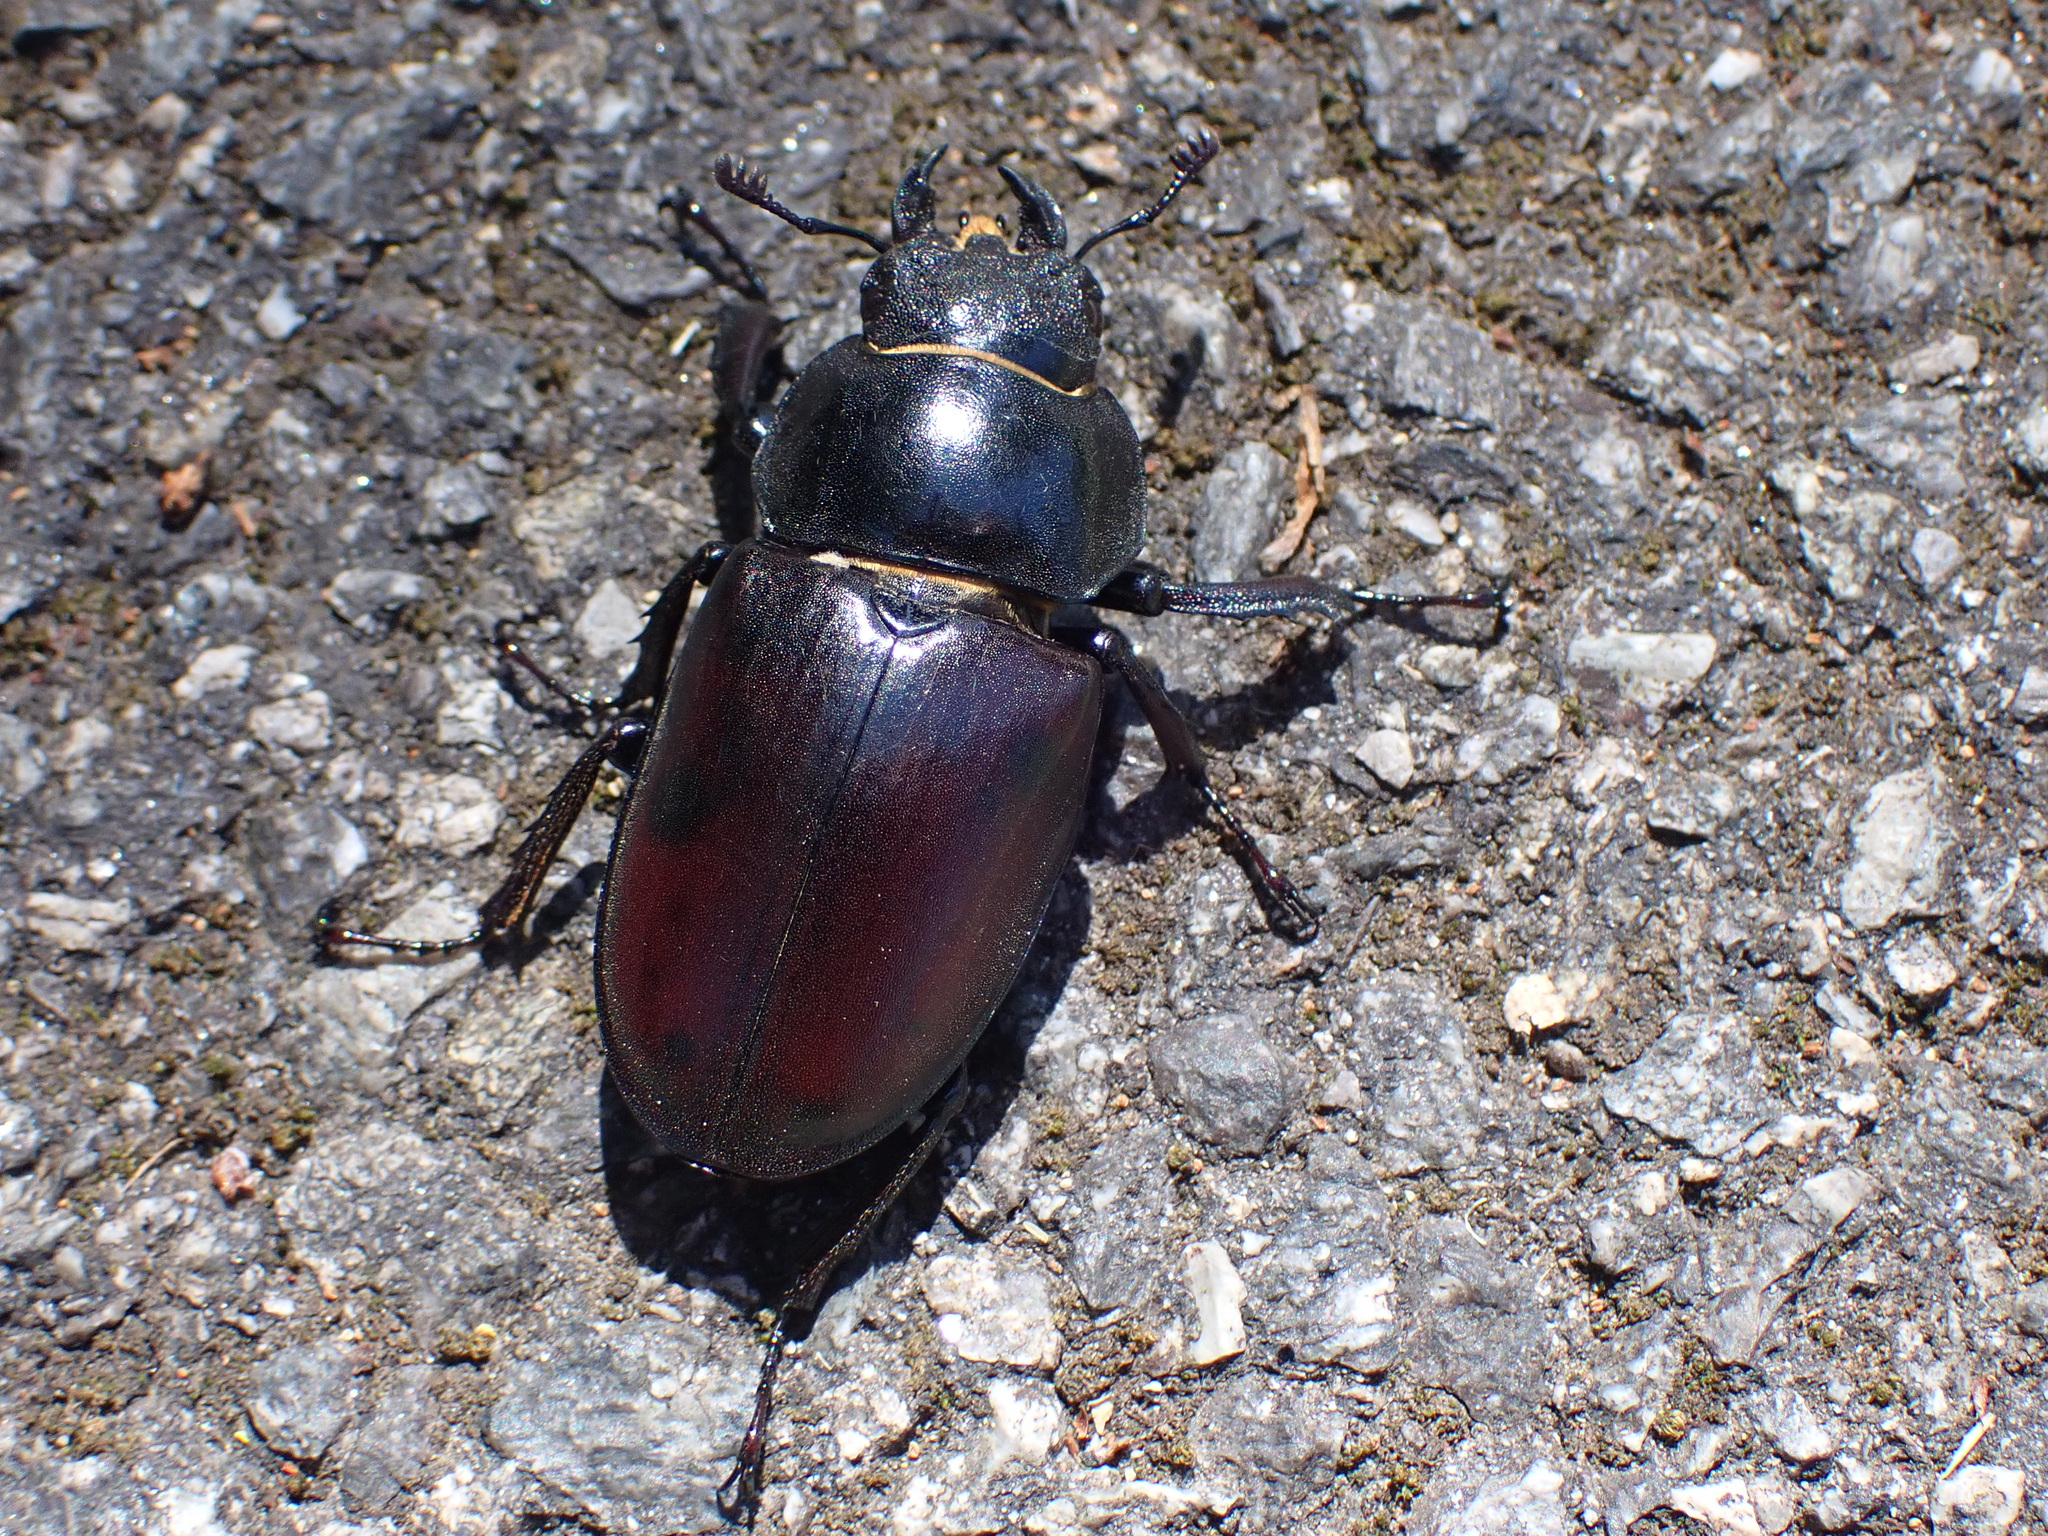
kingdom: Animalia
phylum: Arthropoda
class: Insecta
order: Coleoptera
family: Lucanidae
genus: Lucanus
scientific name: Lucanus cervus
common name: Stag beetle
